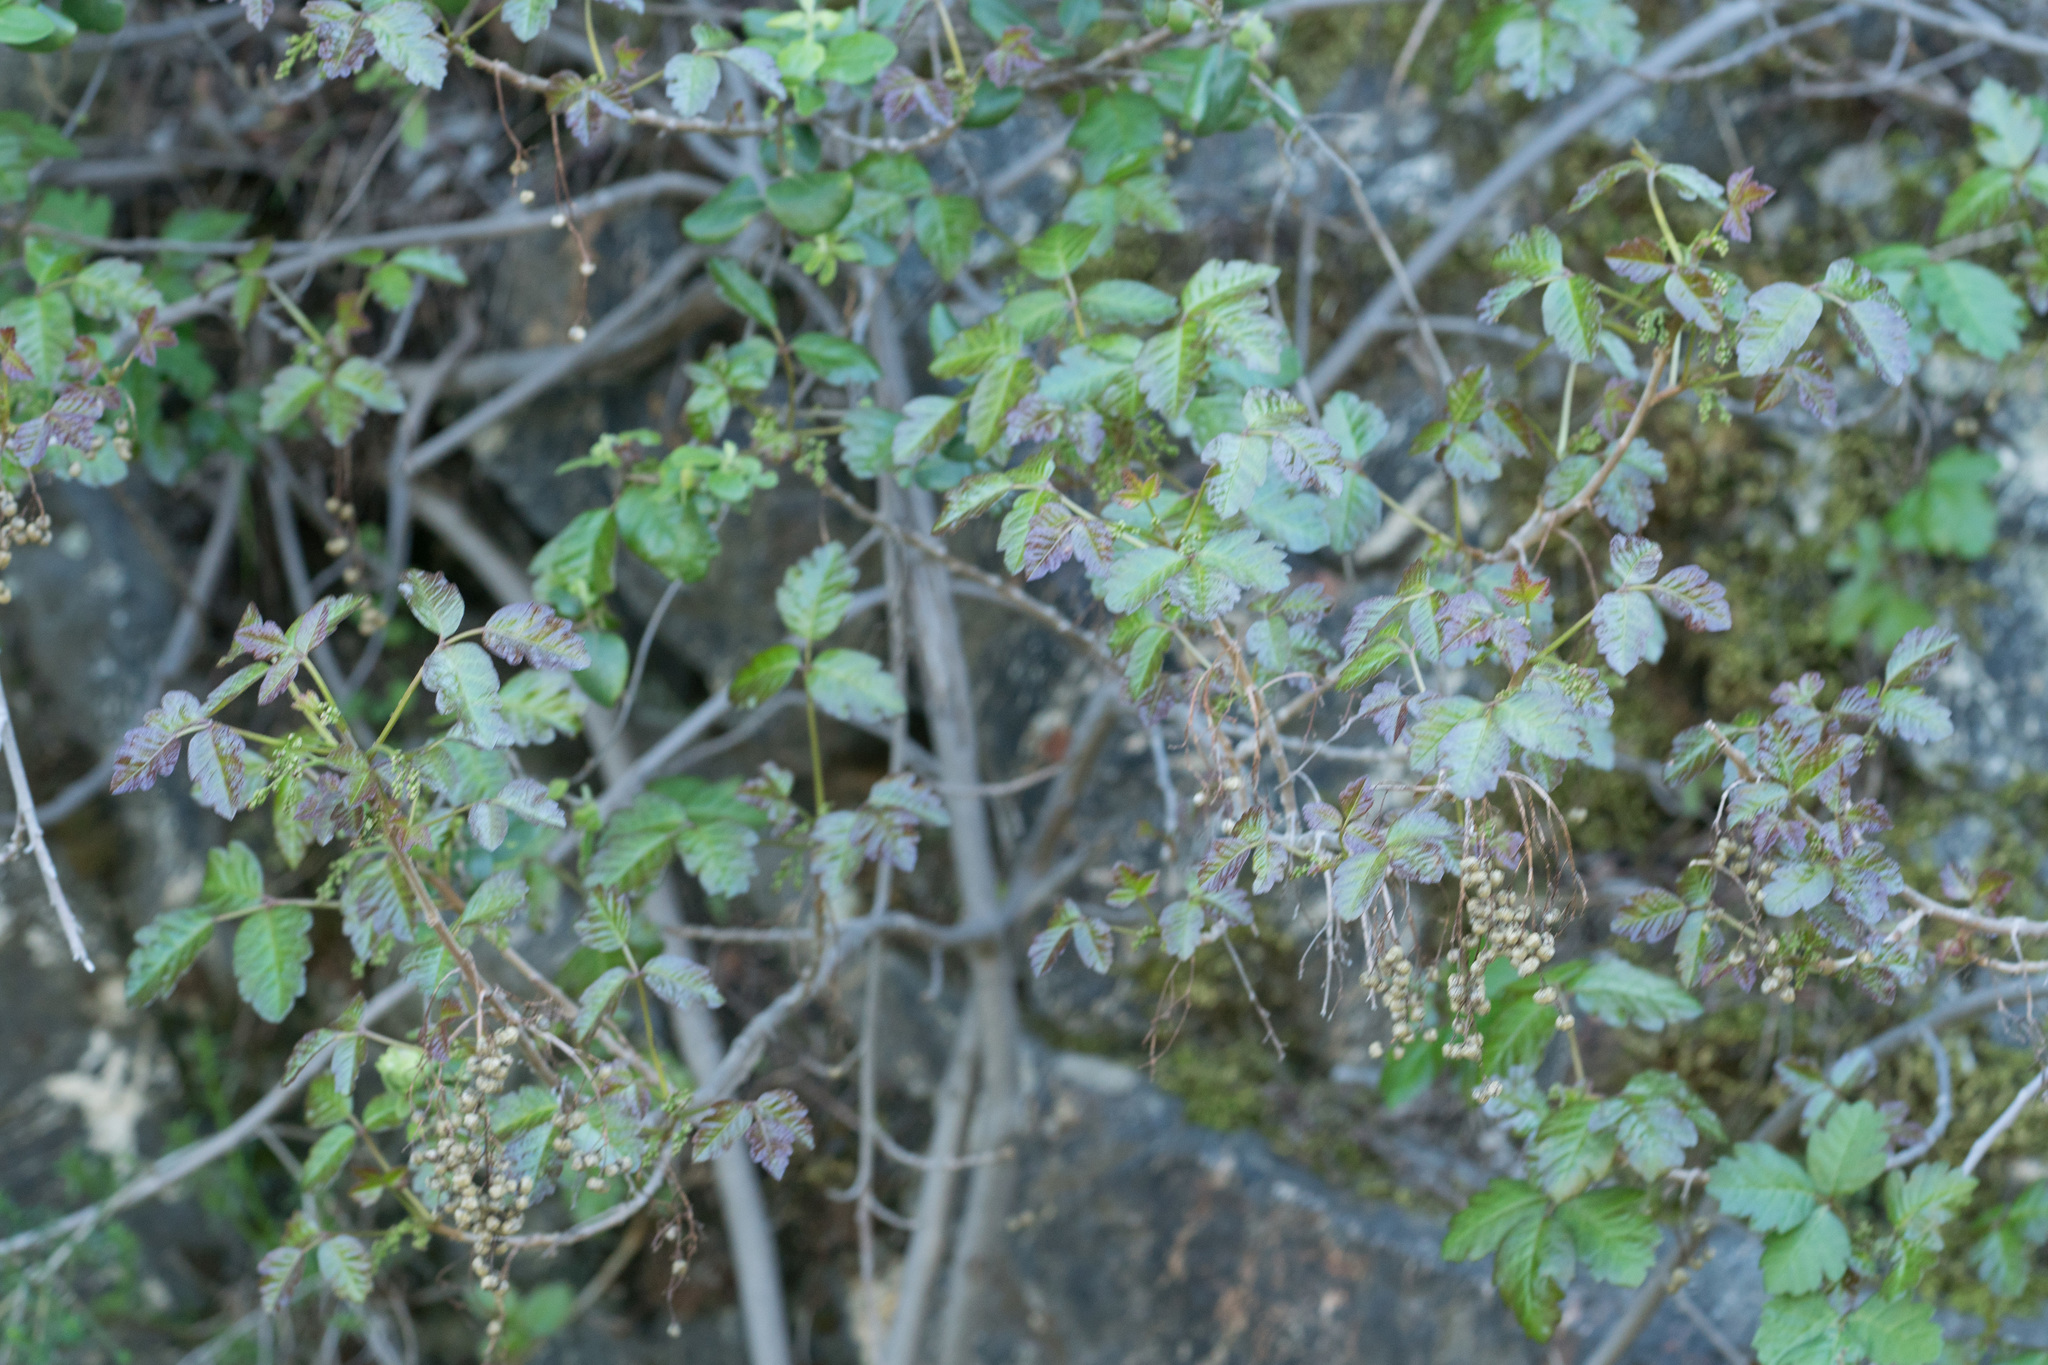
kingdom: Plantae
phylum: Tracheophyta
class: Magnoliopsida
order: Sapindales
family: Anacardiaceae
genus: Toxicodendron
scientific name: Toxicodendron diversilobum
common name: Pacific poison-oak
